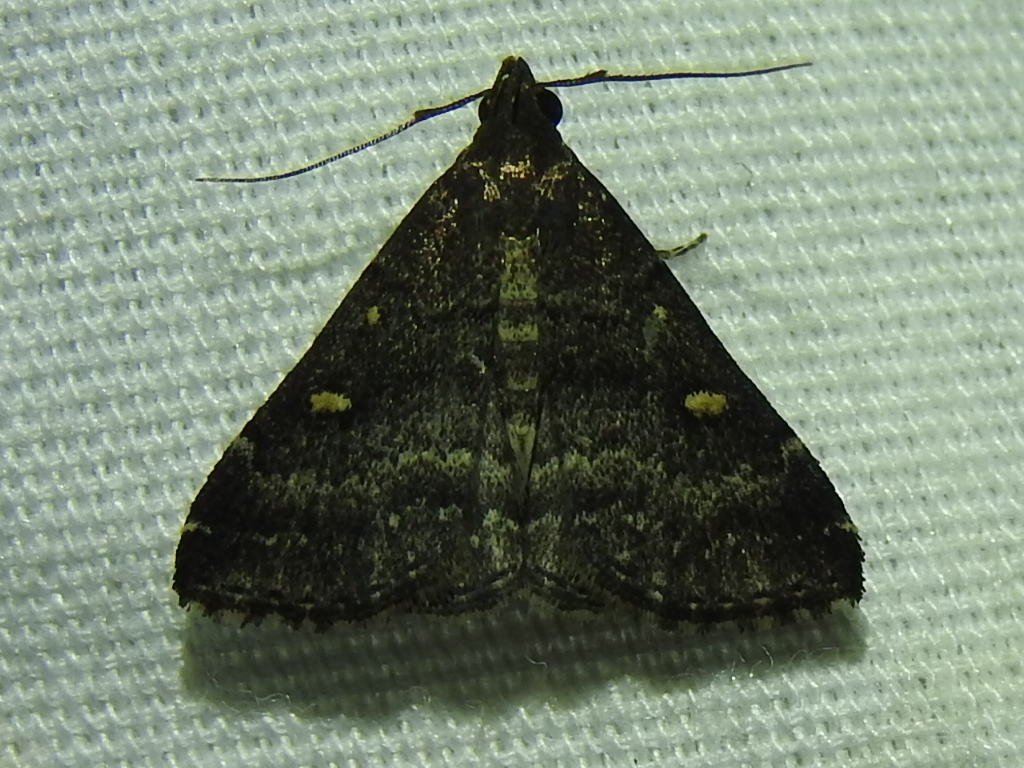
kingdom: Animalia
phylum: Arthropoda
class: Insecta
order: Lepidoptera
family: Erebidae
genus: Tetanolita
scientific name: Tetanolita mynesalis
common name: Smoky tetanolita moth
